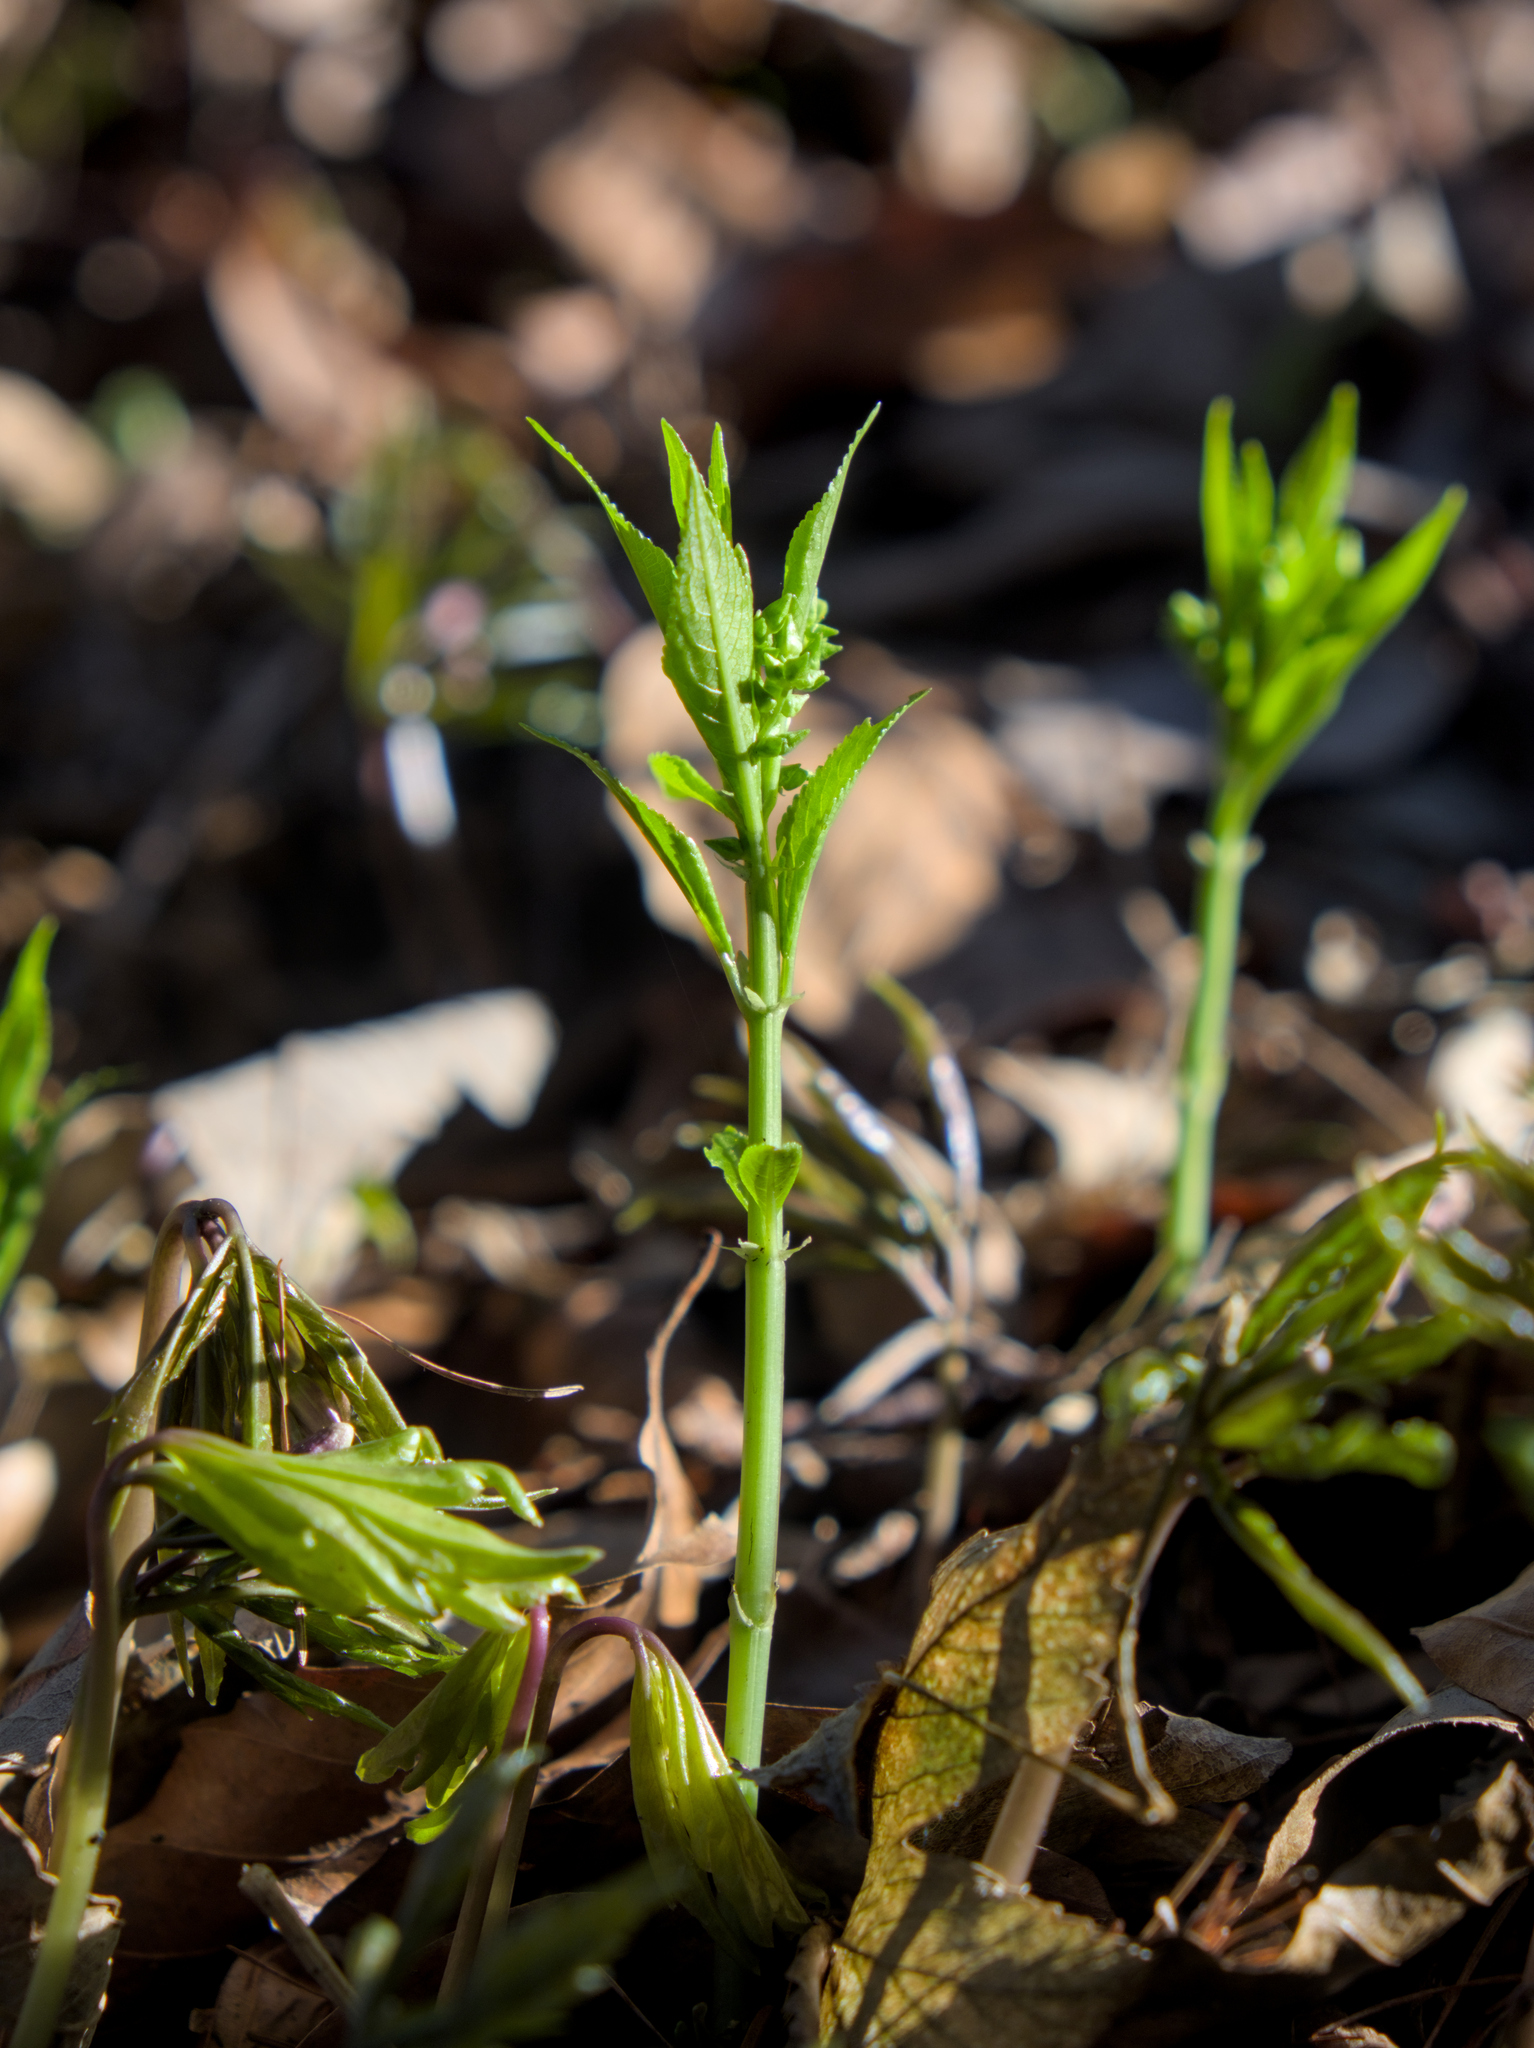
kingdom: Plantae
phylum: Tracheophyta
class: Magnoliopsida
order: Malpighiales
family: Euphorbiaceae
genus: Mercurialis
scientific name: Mercurialis perennis
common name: Dog mercury
